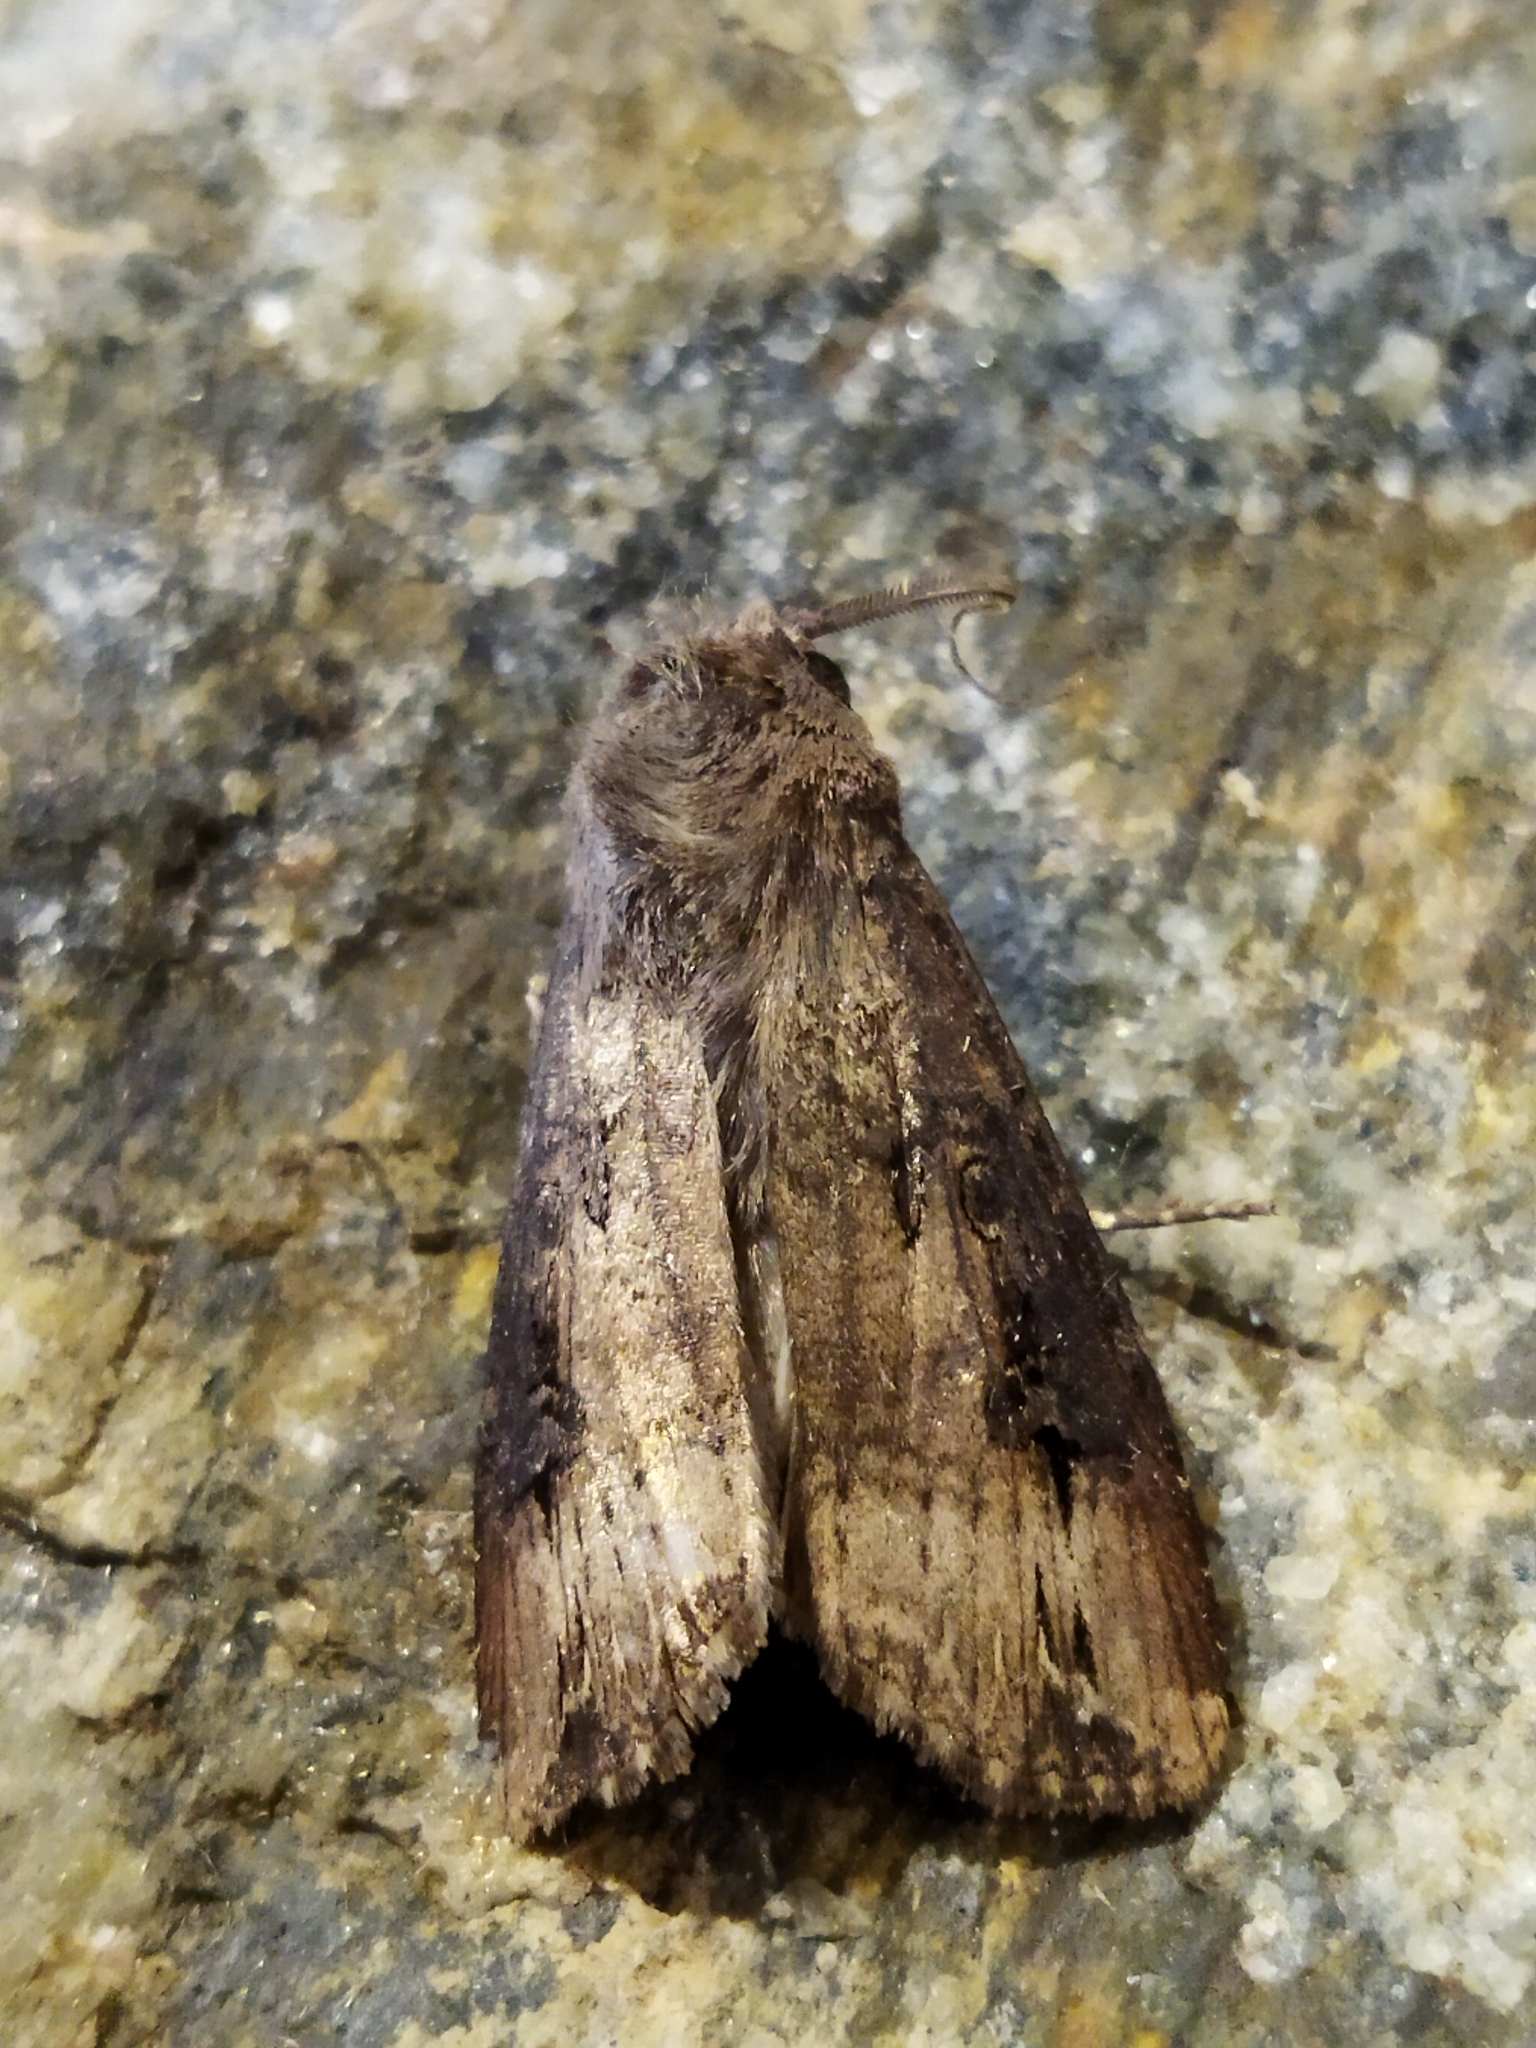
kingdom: Animalia
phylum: Arthropoda
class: Insecta
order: Lepidoptera
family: Noctuidae
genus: Agrotis
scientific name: Agrotis ipsilon
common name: Dark sword-grass
